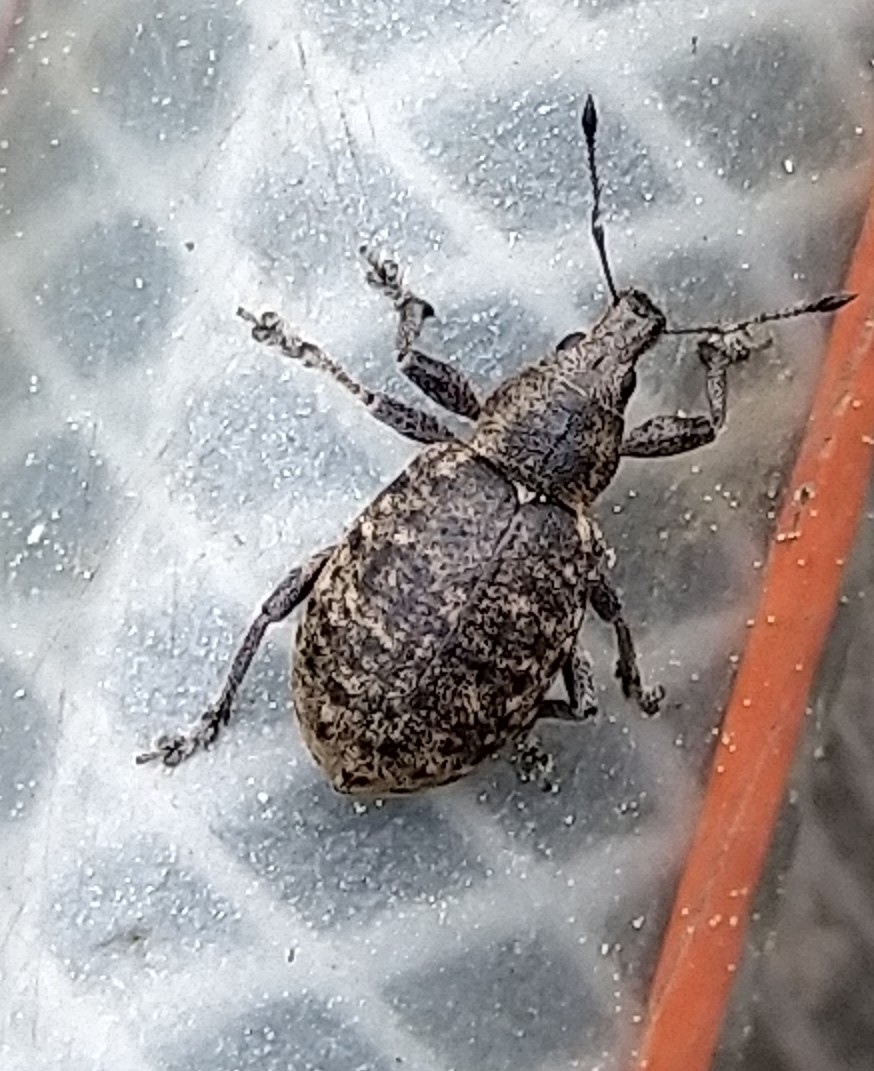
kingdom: Animalia
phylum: Arthropoda
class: Insecta
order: Coleoptera
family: Curculionidae
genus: Liophloeus
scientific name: Liophloeus tessulatus
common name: Weevil
